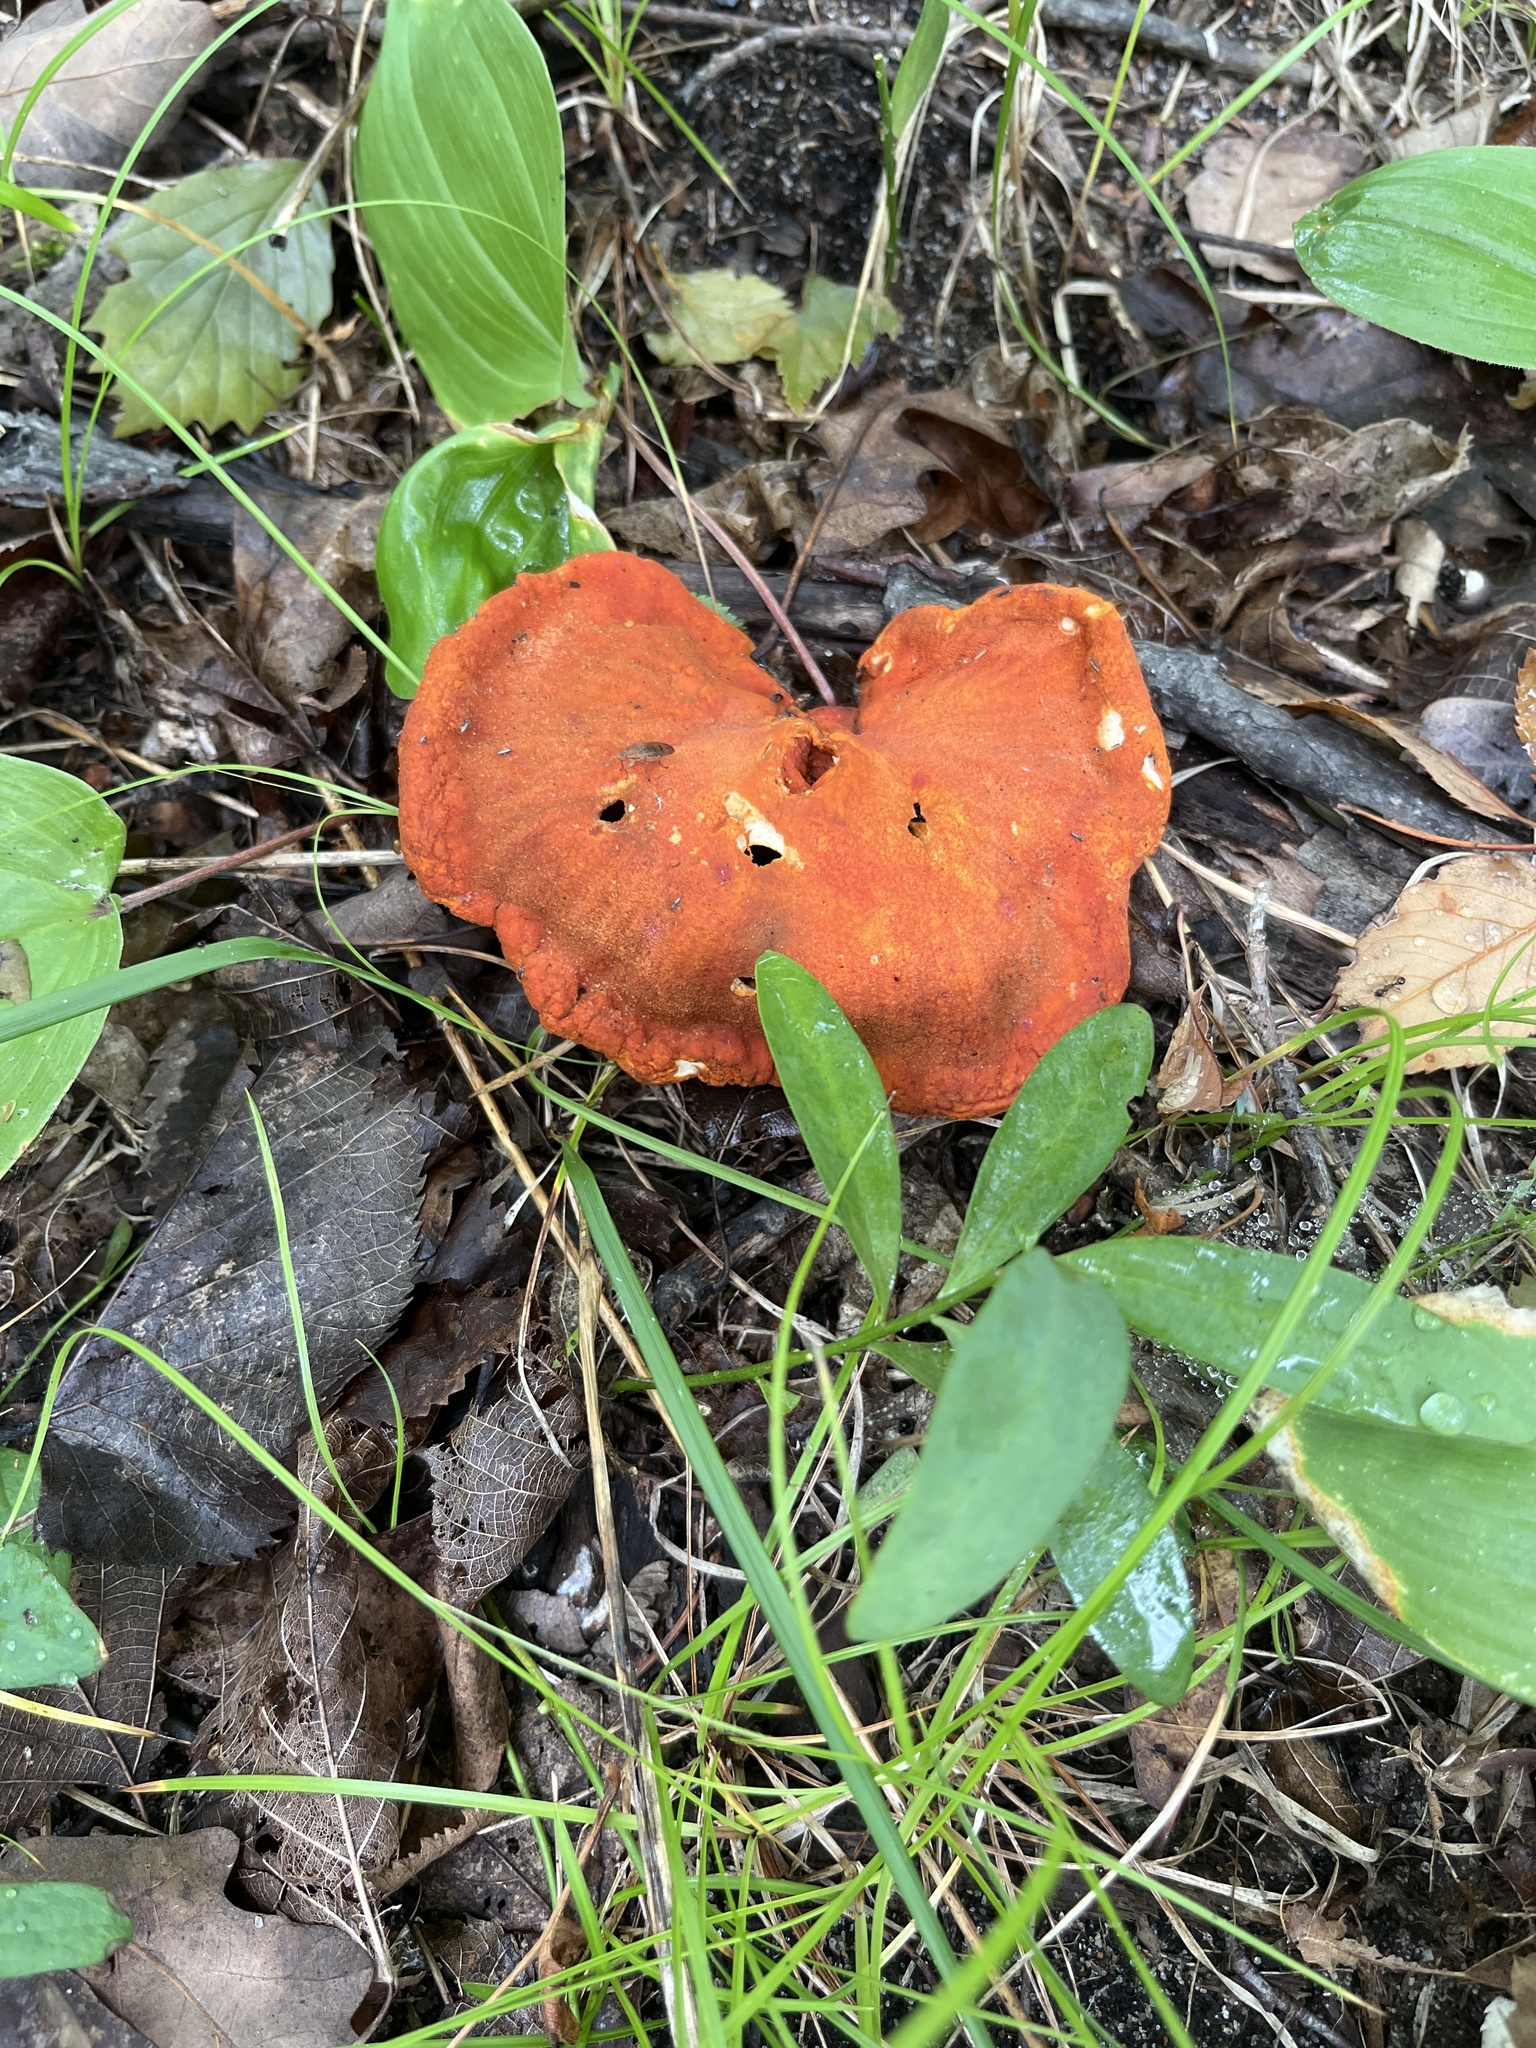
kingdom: Fungi
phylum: Ascomycota
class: Sordariomycetes
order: Hypocreales
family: Hypocreaceae
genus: Hypomyces
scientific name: Hypomyces lactifluorum
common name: Lobster mushroom
